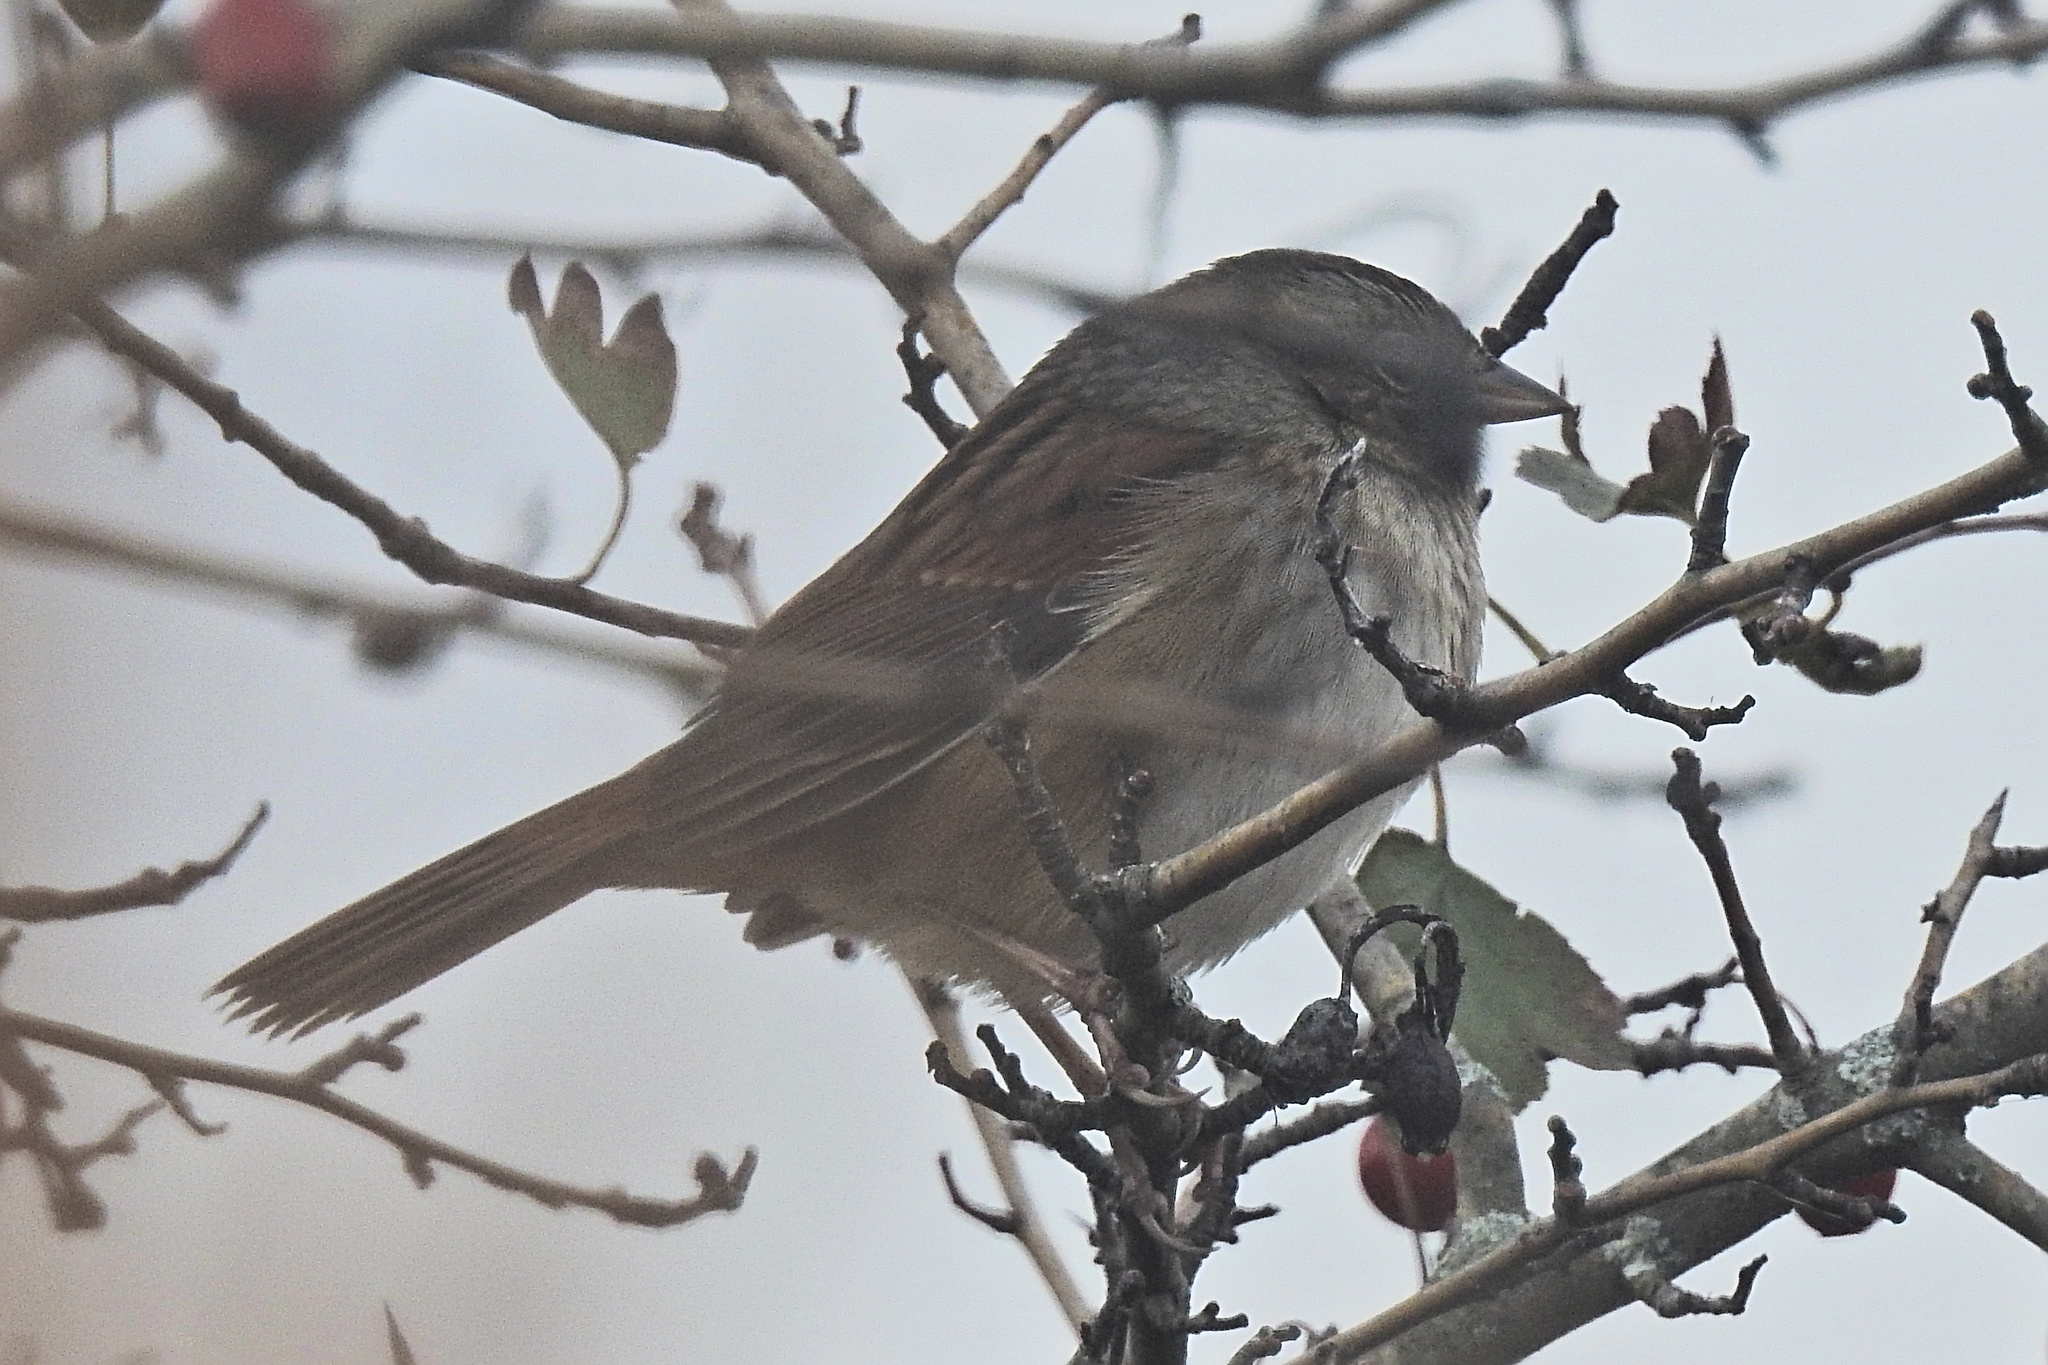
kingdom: Animalia
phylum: Chordata
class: Aves
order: Passeriformes
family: Passerellidae
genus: Melospiza
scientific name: Melospiza georgiana
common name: Swamp sparrow
